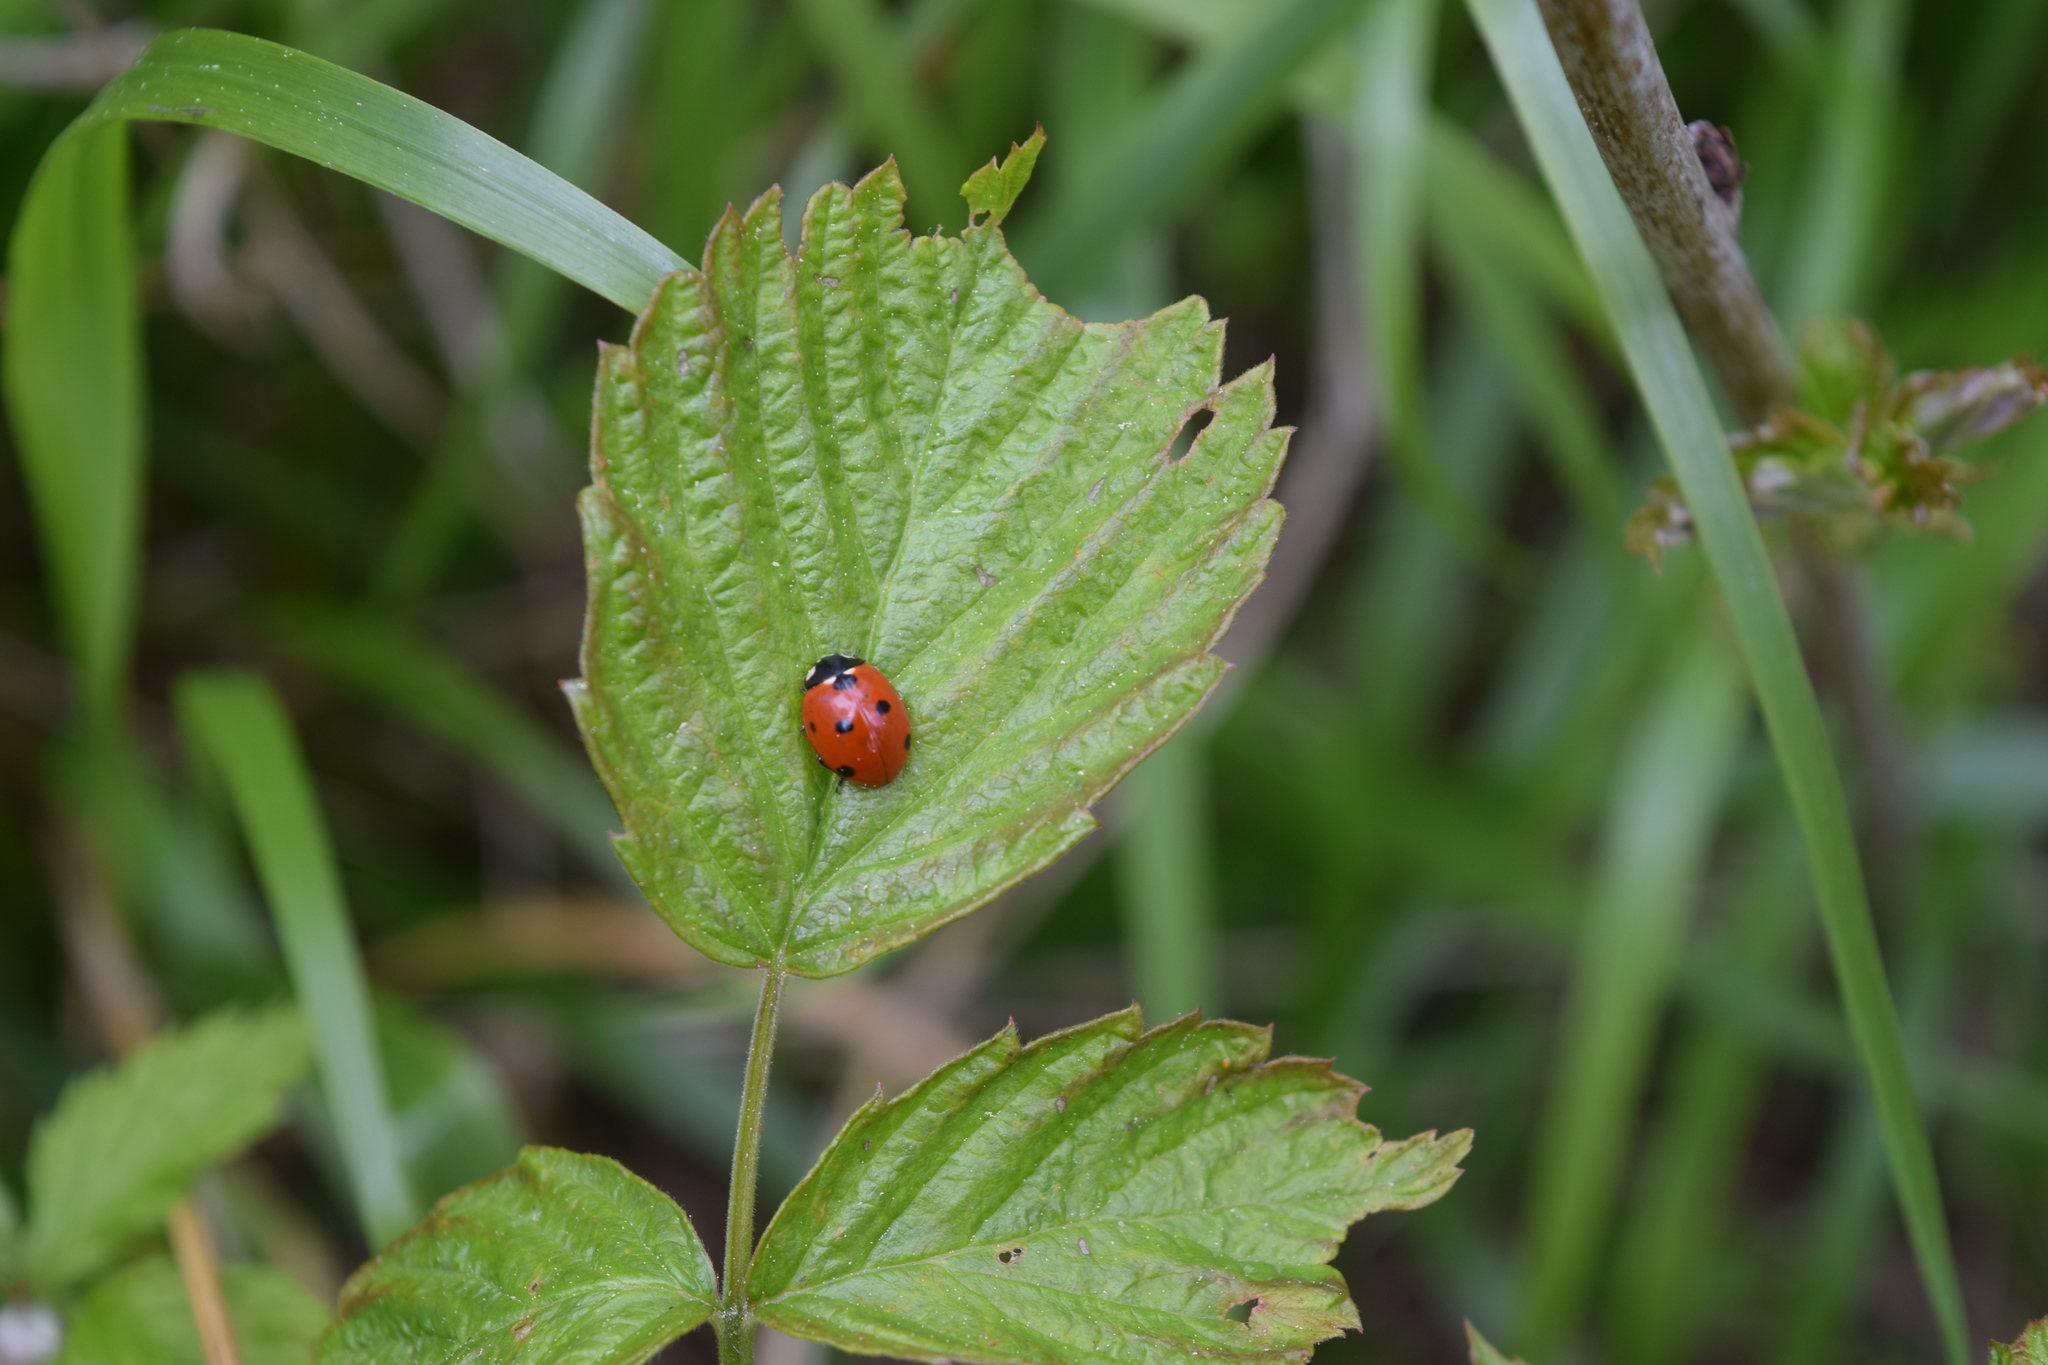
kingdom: Animalia
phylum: Arthropoda
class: Insecta
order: Coleoptera
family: Coccinellidae
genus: Coccinella
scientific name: Coccinella septempunctata
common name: Sevenspotted lady beetle
